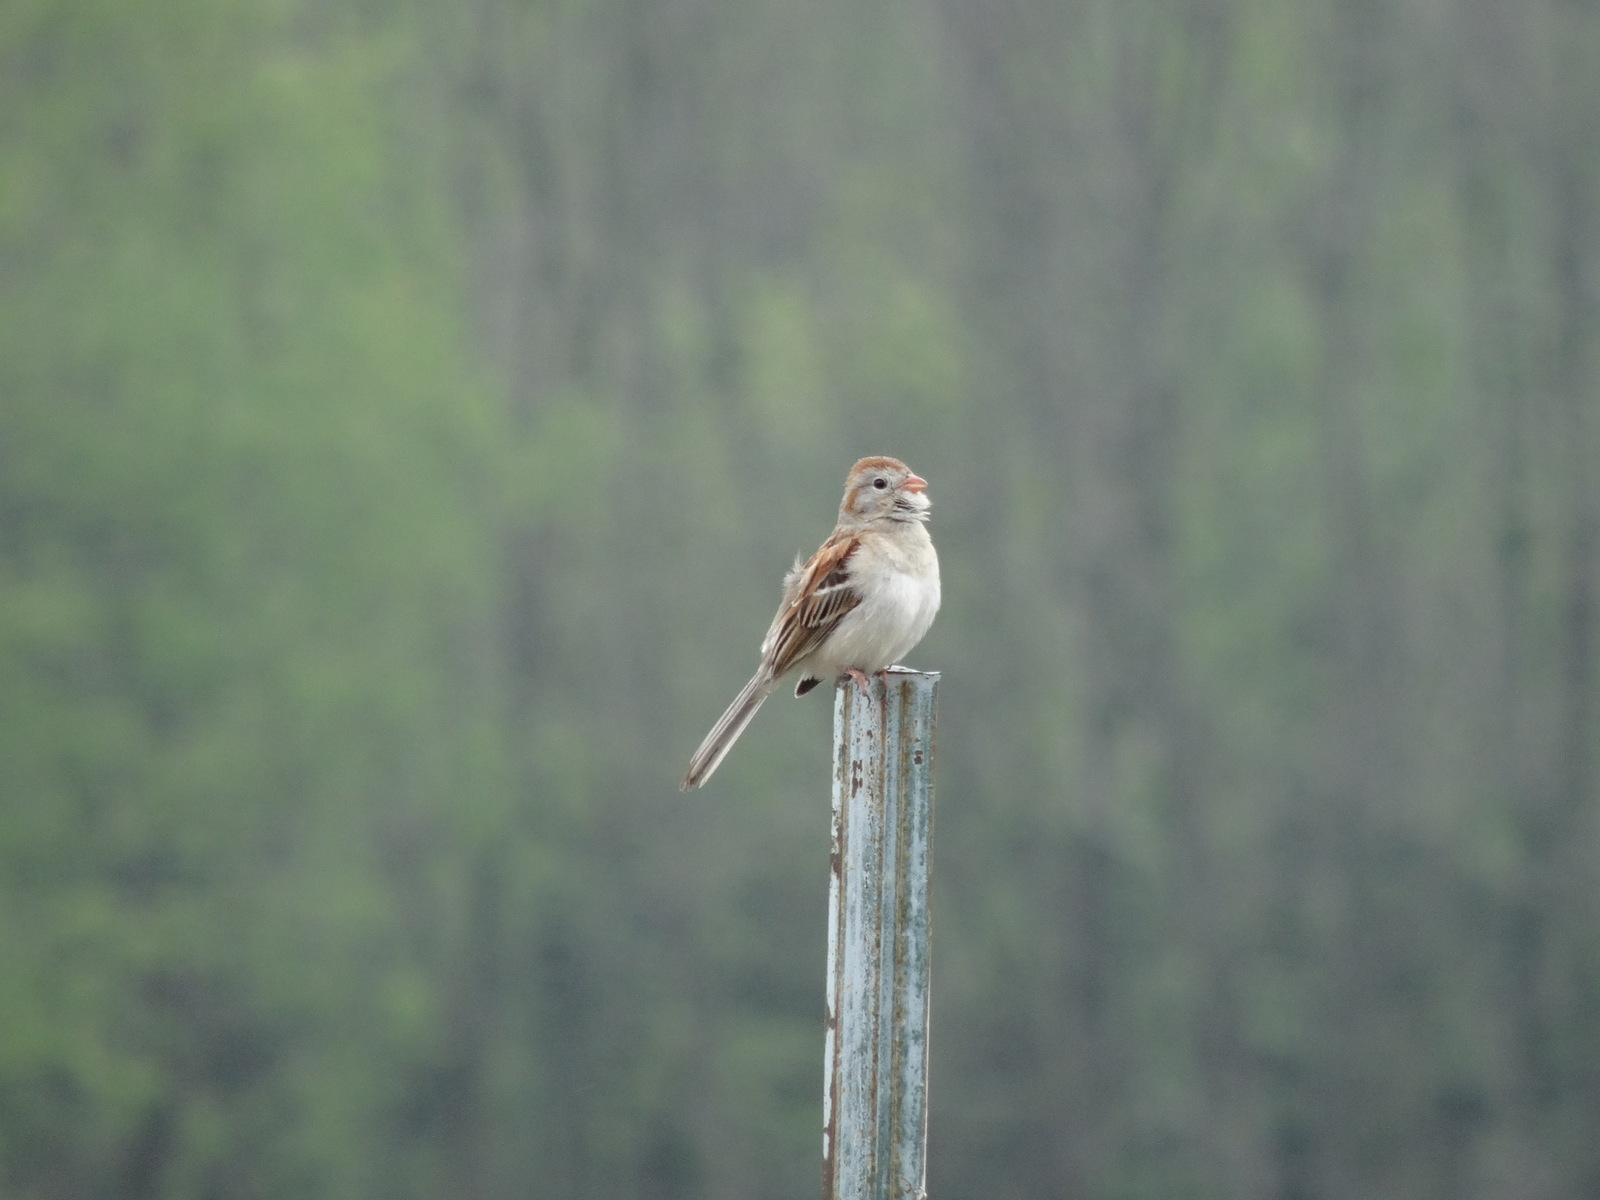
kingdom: Animalia
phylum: Chordata
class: Aves
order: Passeriformes
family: Passerellidae
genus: Spizella
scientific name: Spizella pusilla
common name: Field sparrow
